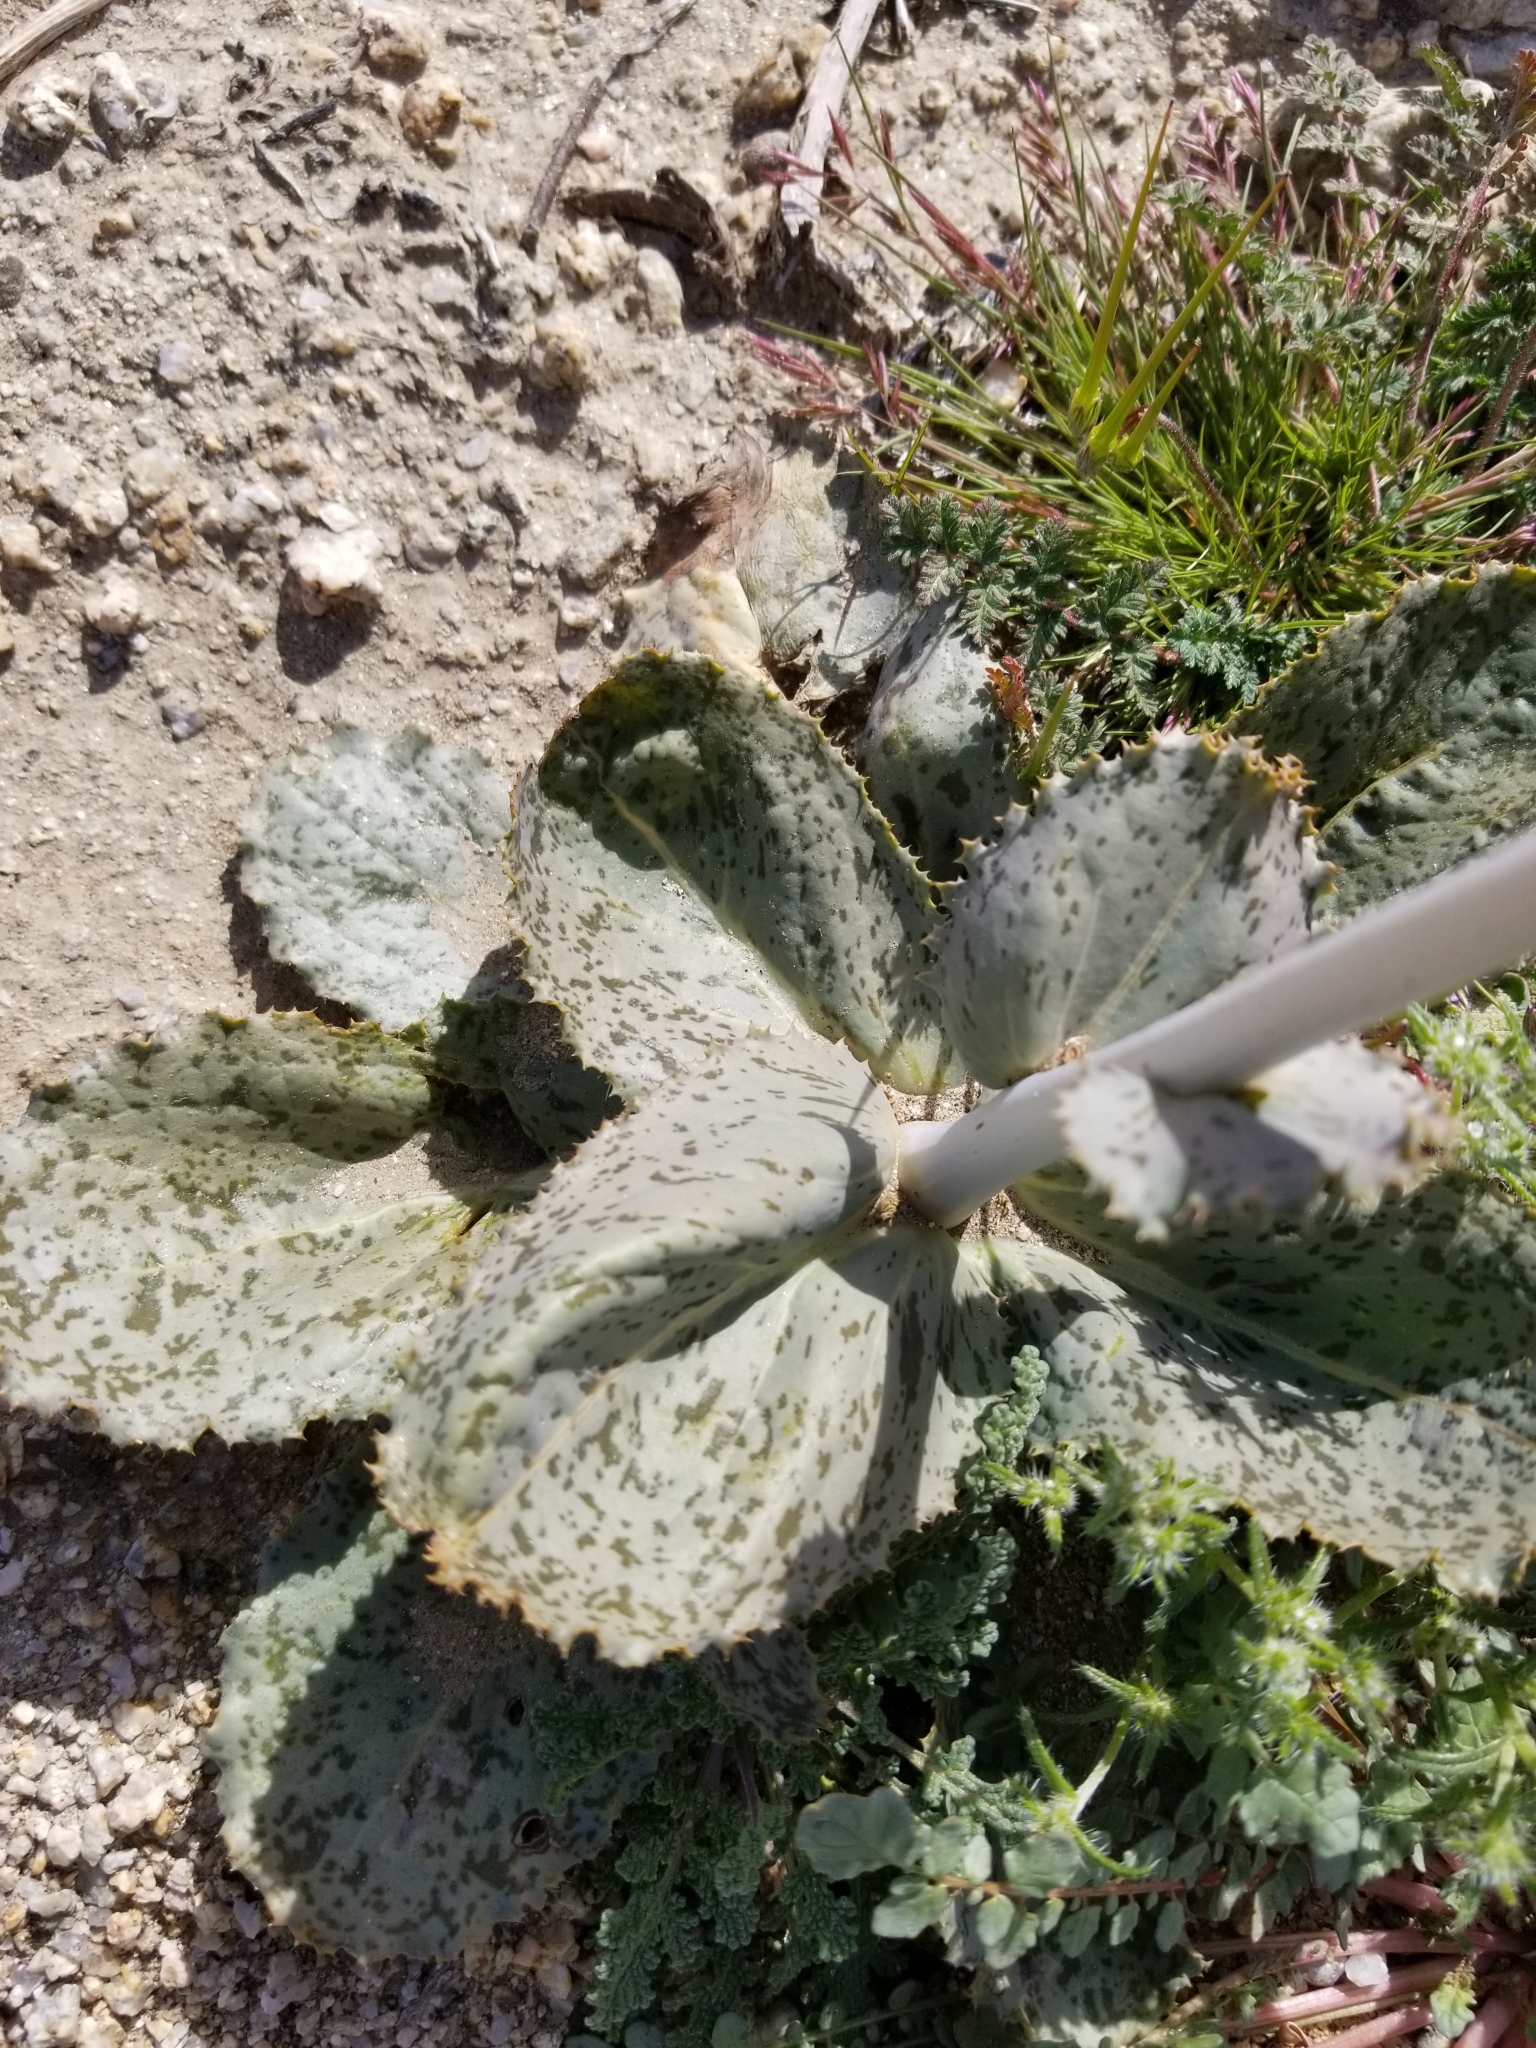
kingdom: Plantae
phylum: Tracheophyta
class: Magnoliopsida
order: Asterales
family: Asteraceae
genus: Atrichoseris
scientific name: Atrichoseris platyphylla
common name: Tobaccoweed
